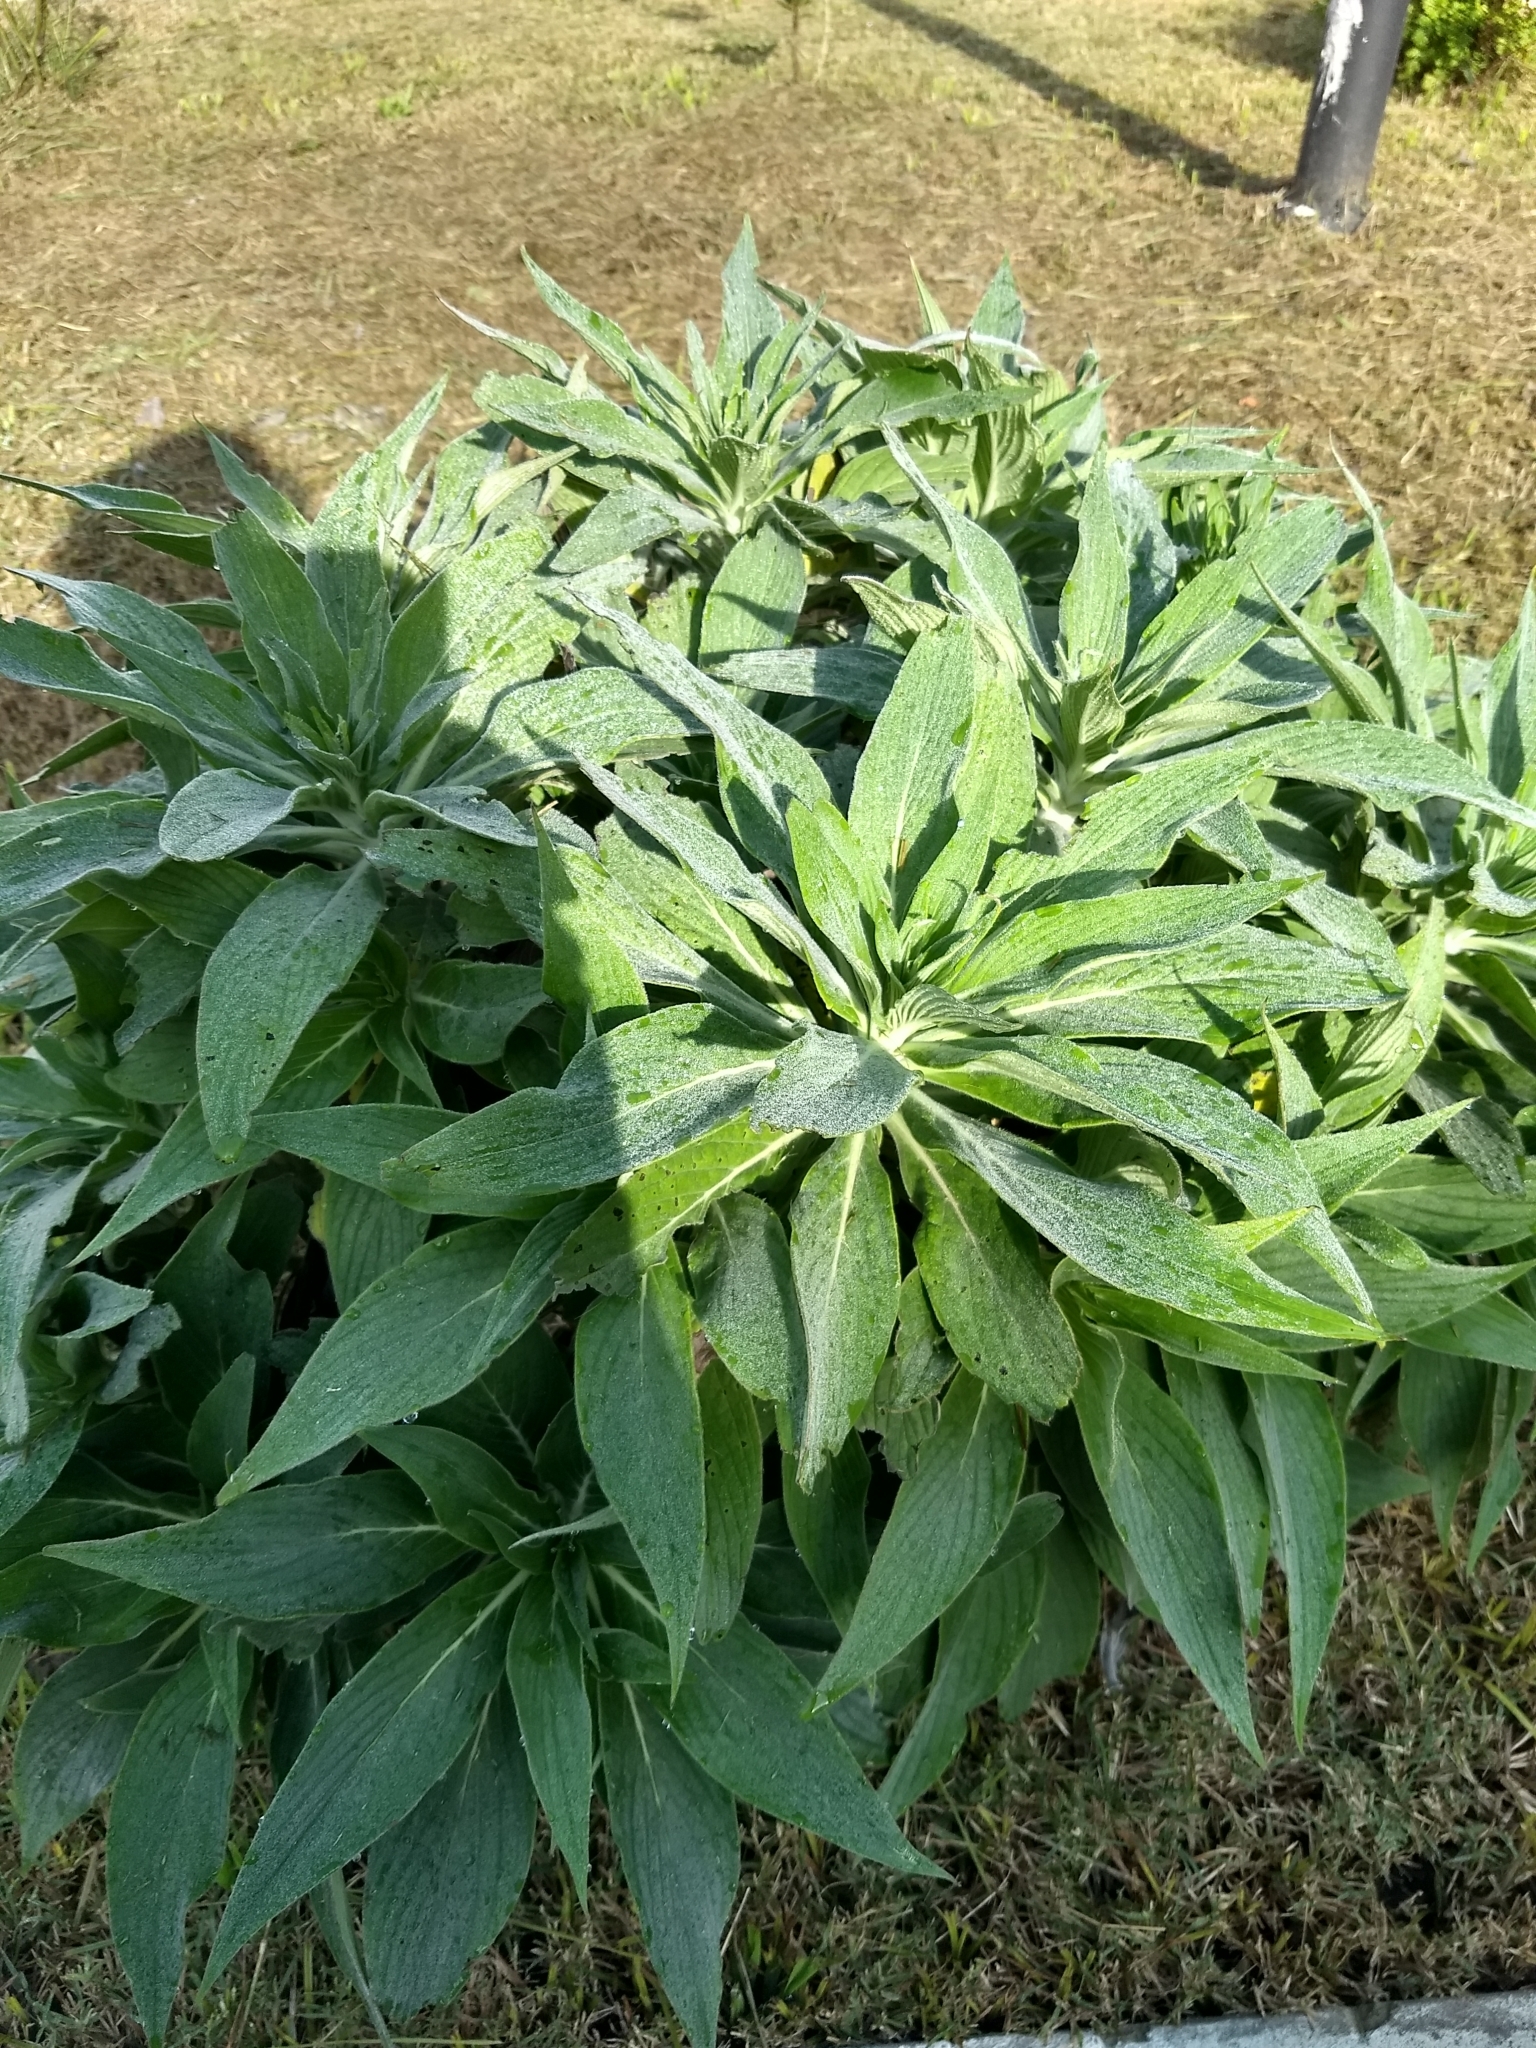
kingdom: Plantae
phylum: Tracheophyta
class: Magnoliopsida
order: Boraginales
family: Boraginaceae
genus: Echium
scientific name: Echium candicans
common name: Pride of madeira
